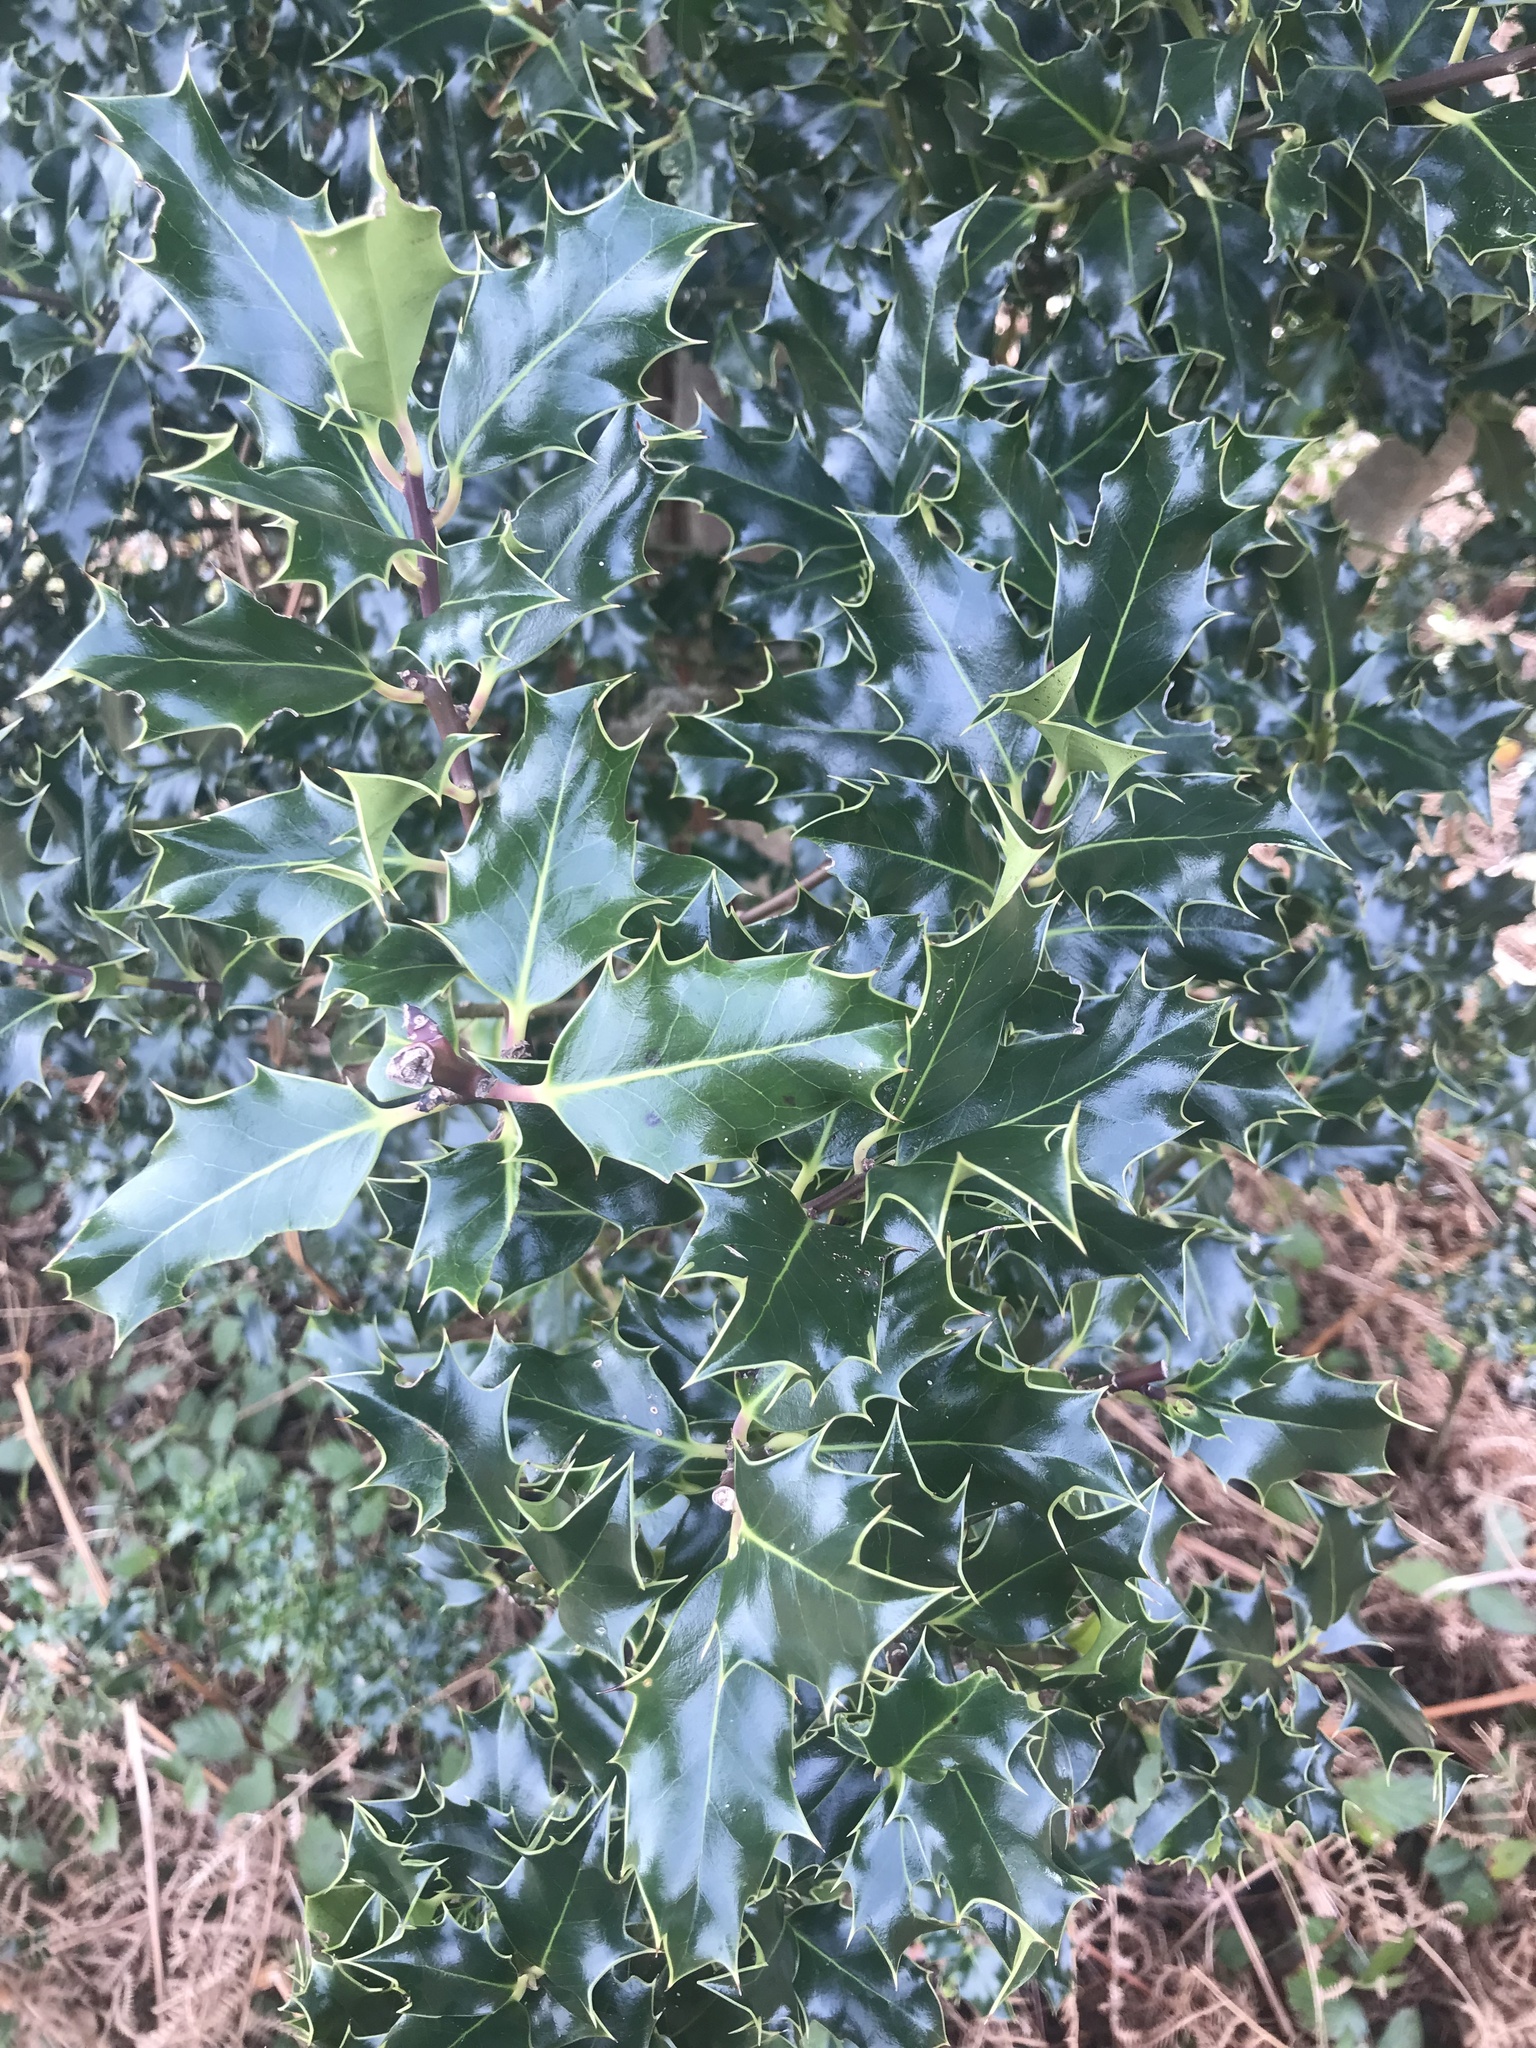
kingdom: Plantae
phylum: Tracheophyta
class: Magnoliopsida
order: Aquifoliales
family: Aquifoliaceae
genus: Ilex
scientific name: Ilex aquifolium
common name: English holly
